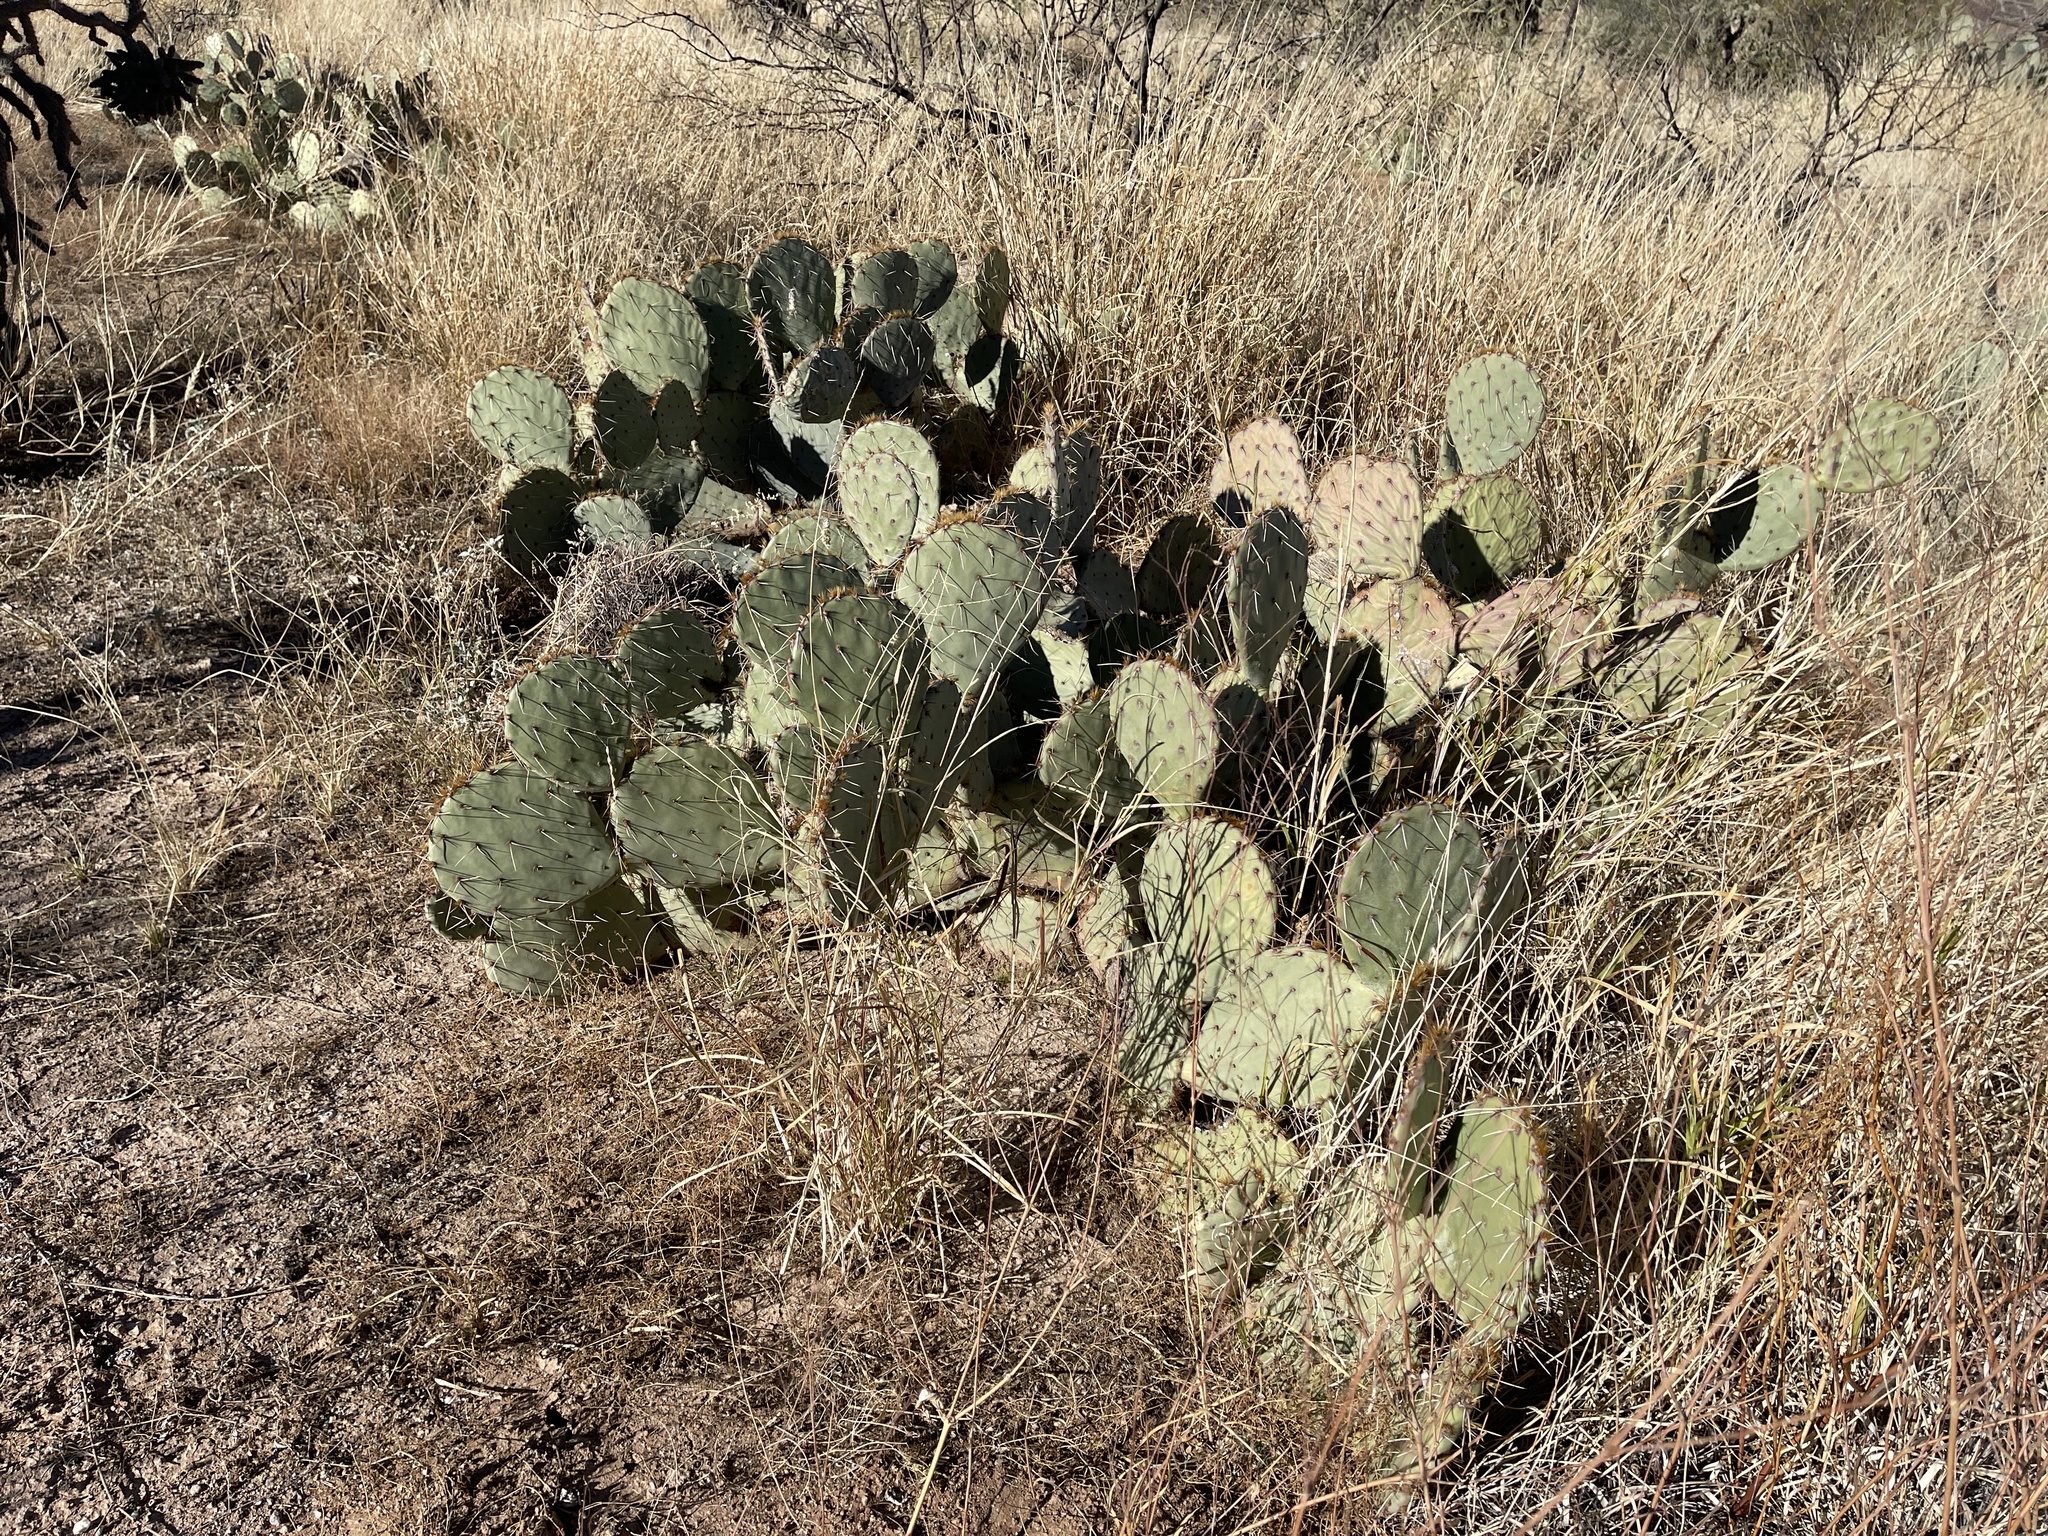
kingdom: Plantae
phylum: Tracheophyta
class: Magnoliopsida
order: Caryophyllales
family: Cactaceae
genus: Opuntia
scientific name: Opuntia engelmannii
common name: Cactus-apple
